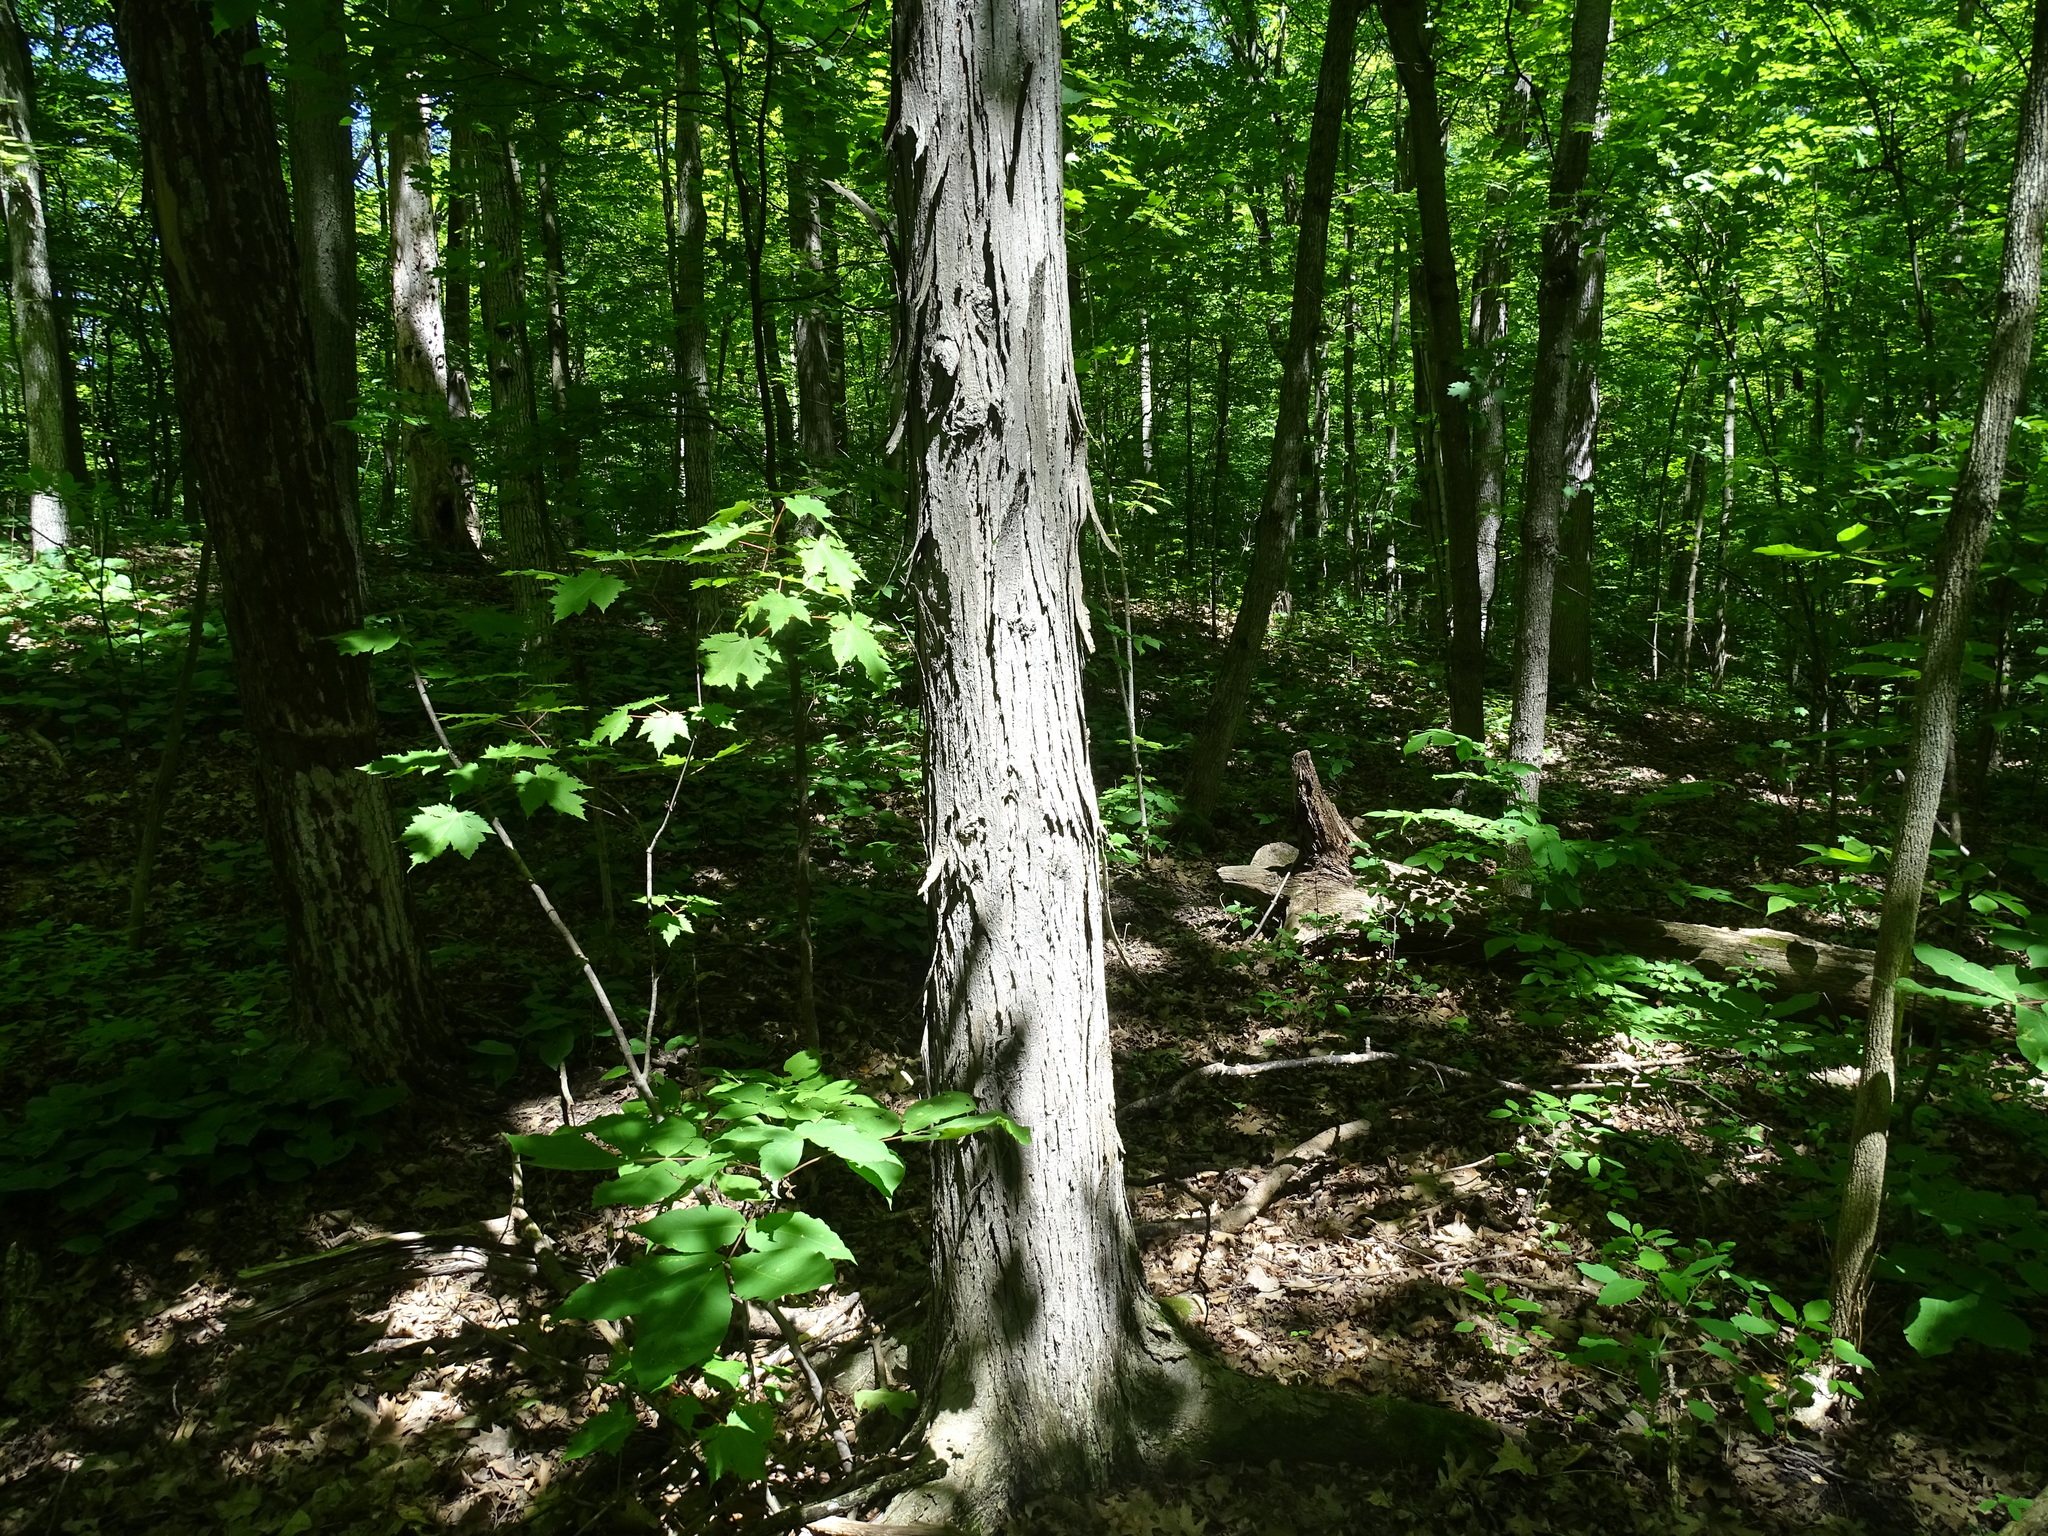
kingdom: Plantae
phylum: Tracheophyta
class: Magnoliopsida
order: Fagales
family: Juglandaceae
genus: Carya
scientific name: Carya ovata
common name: Shagbark hickory
